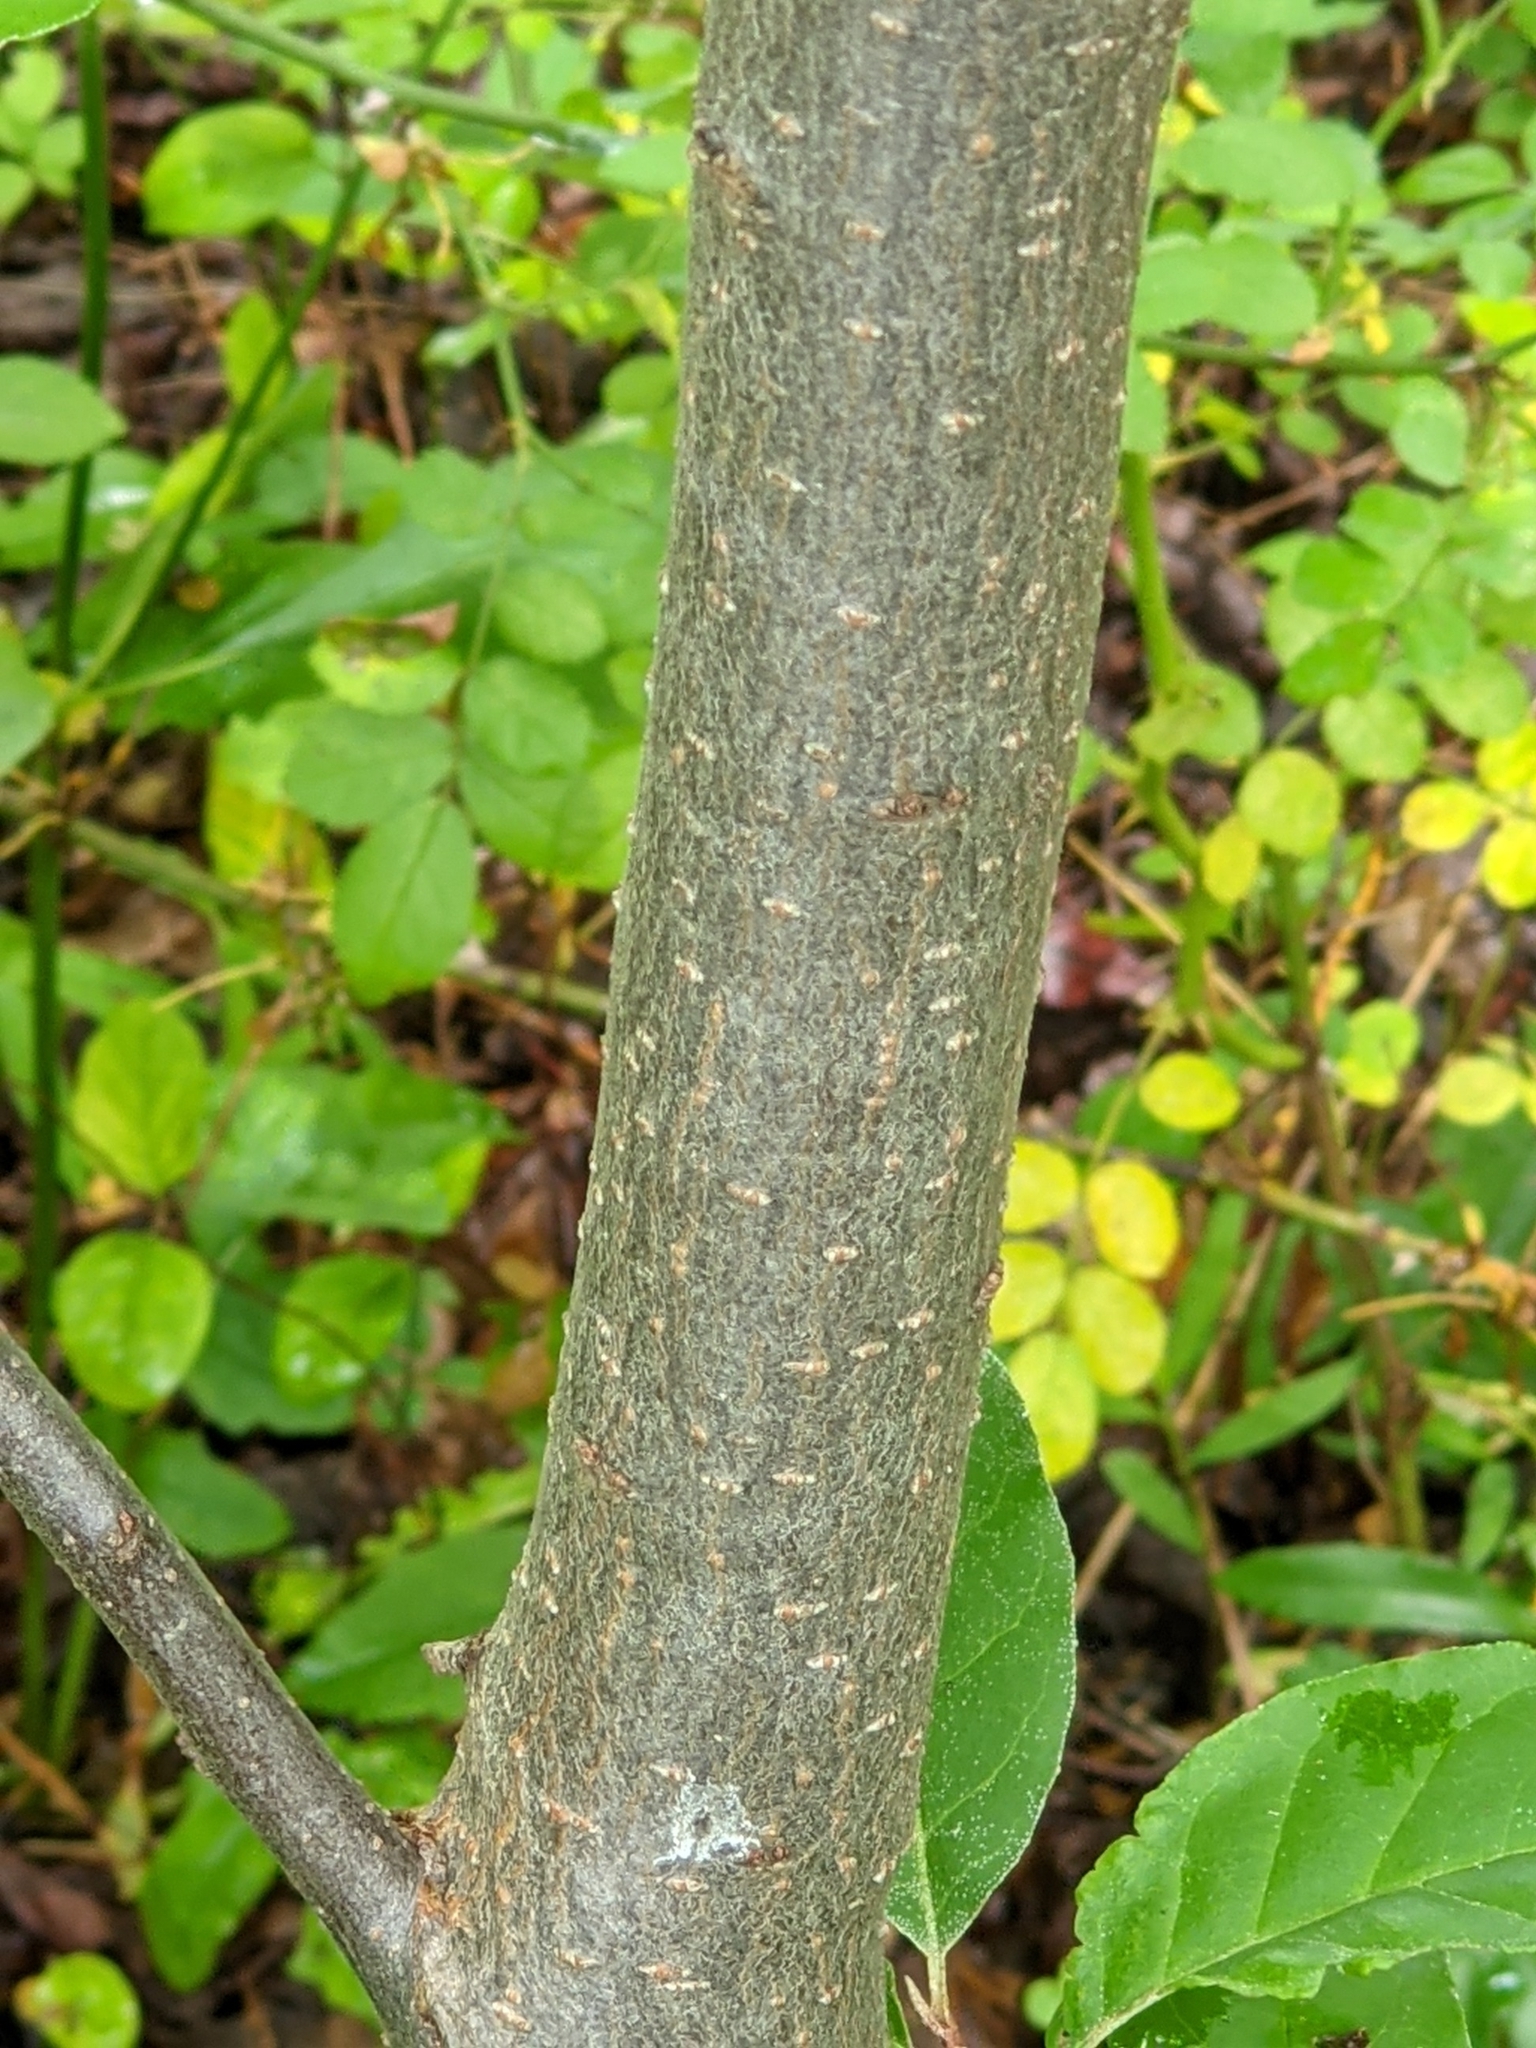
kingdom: Plantae
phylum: Tracheophyta
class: Magnoliopsida
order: Rosales
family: Elaeagnaceae
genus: Elaeagnus
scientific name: Elaeagnus umbellata
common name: Autumn olive
